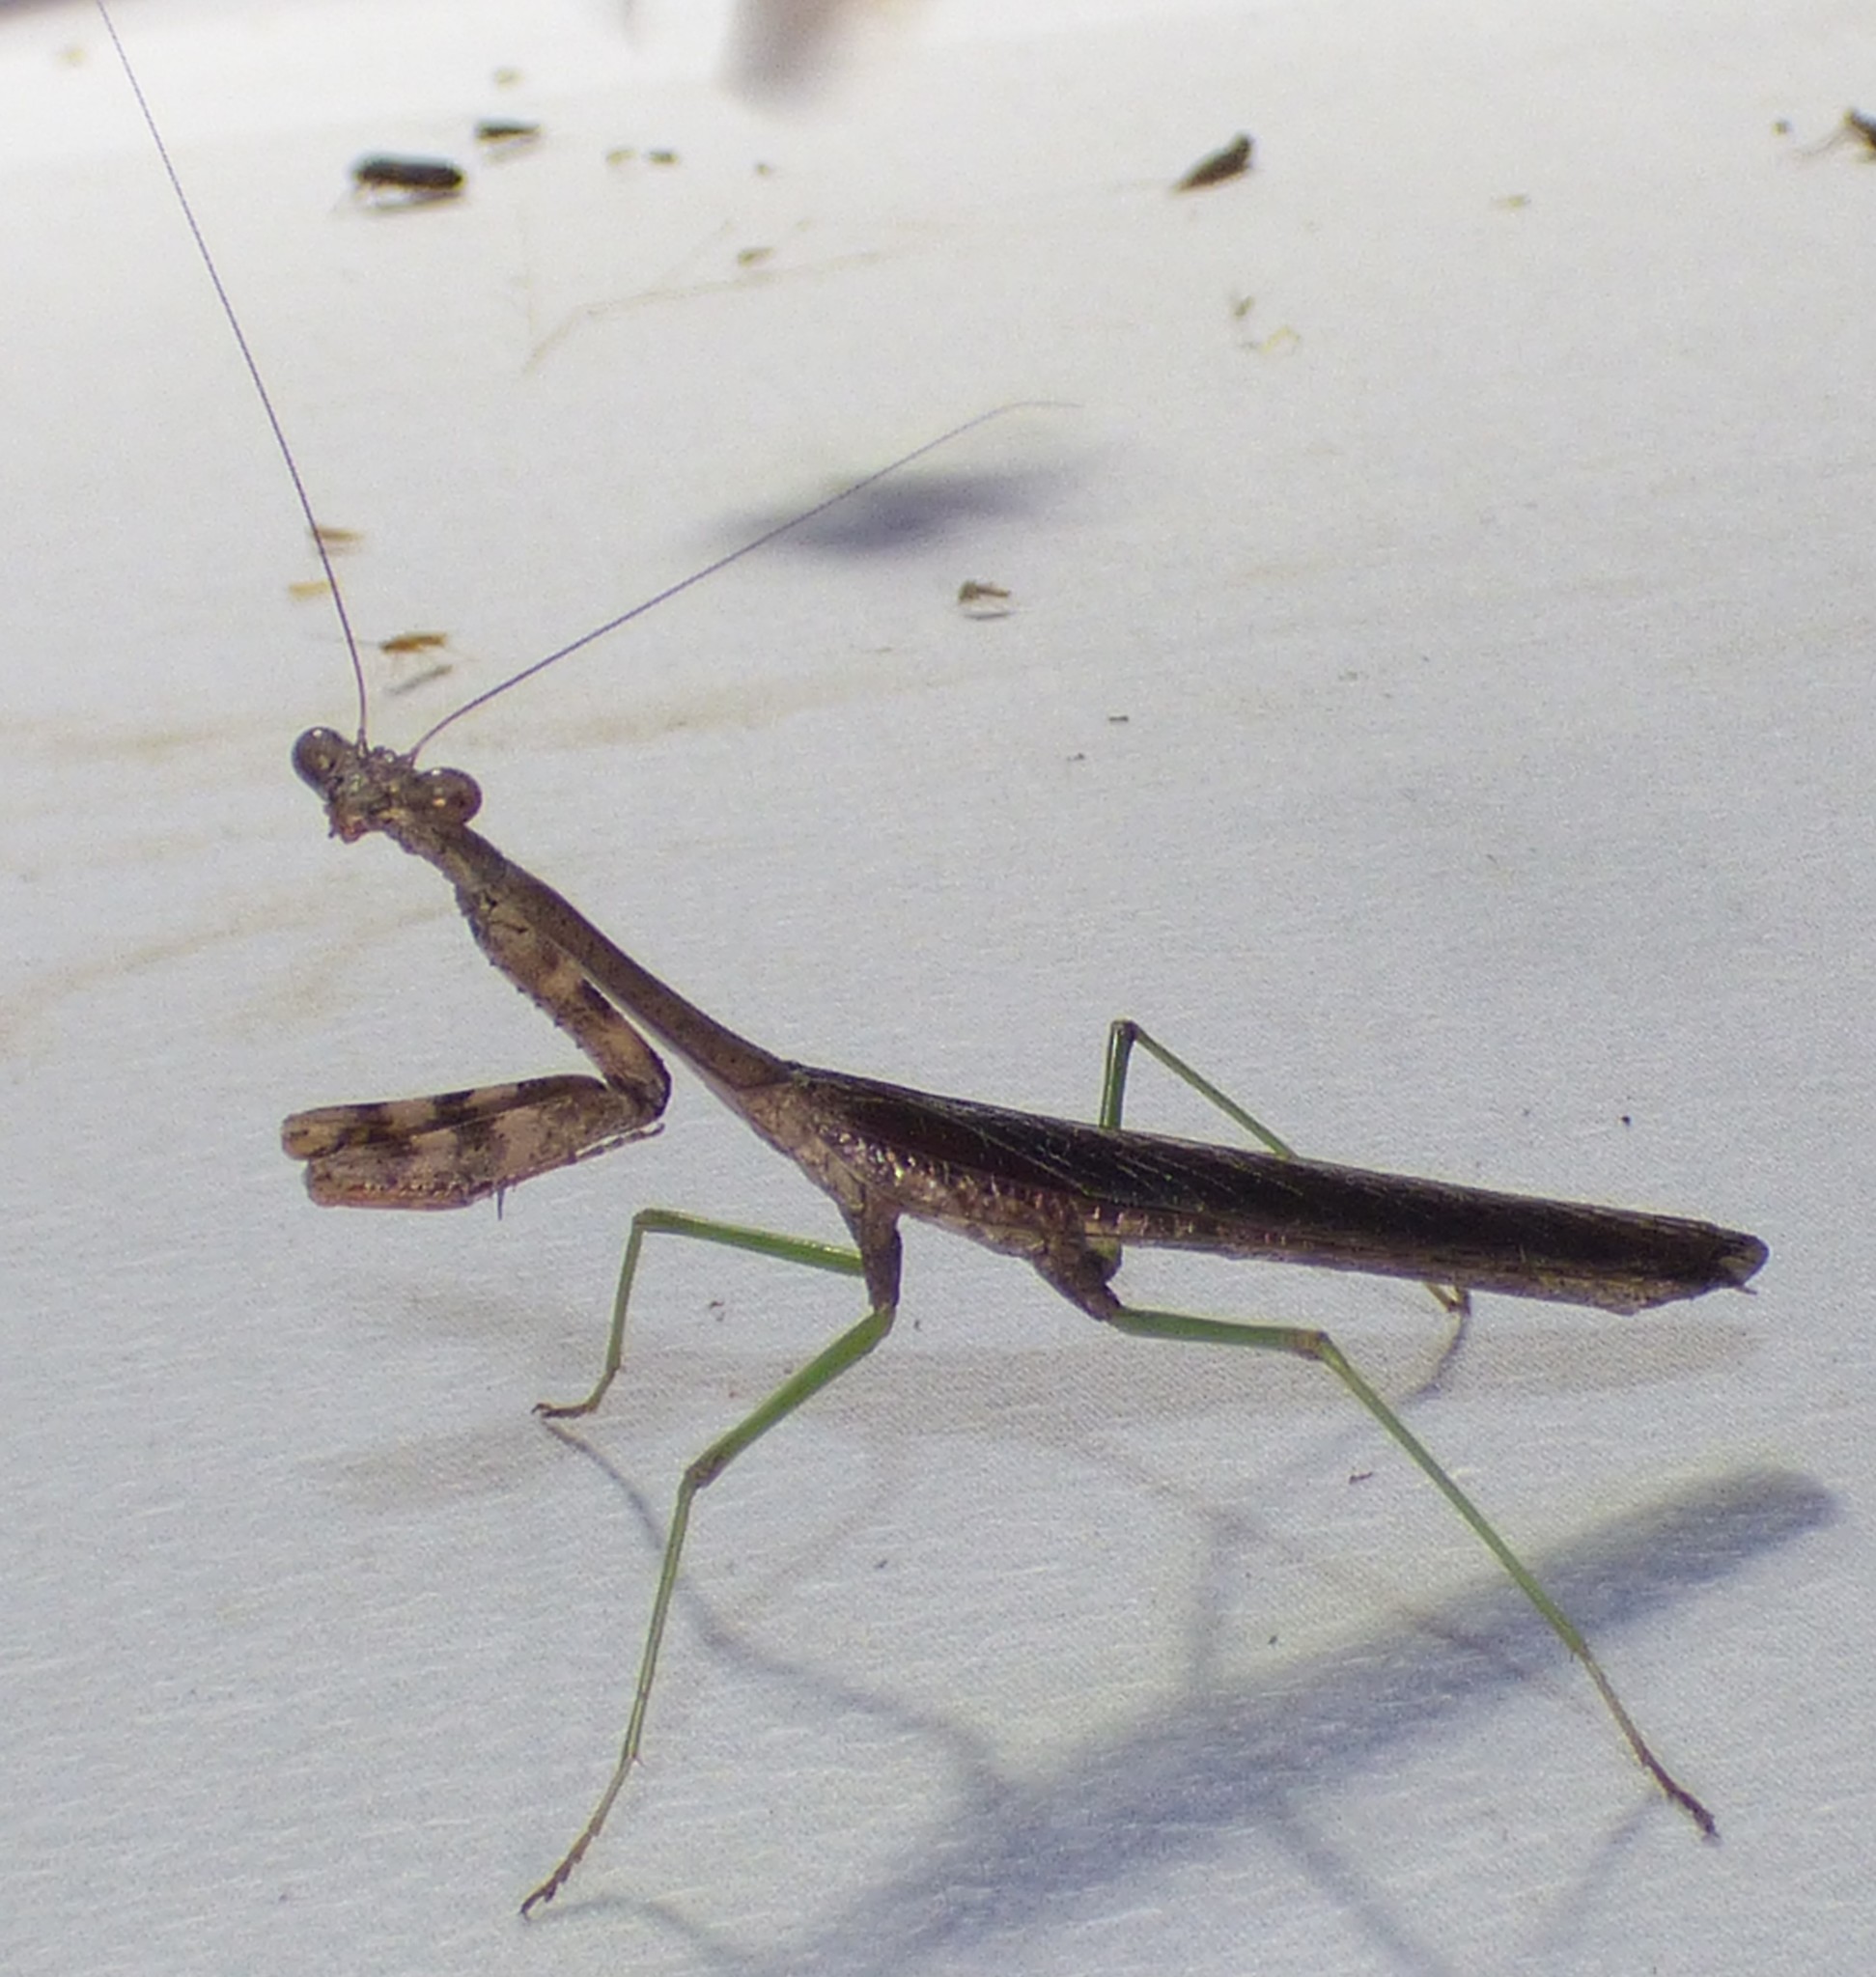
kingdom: Animalia
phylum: Arthropoda
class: Insecta
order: Mantodea
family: Mantidae
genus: Stagmomantis
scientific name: Stagmomantis carolina
